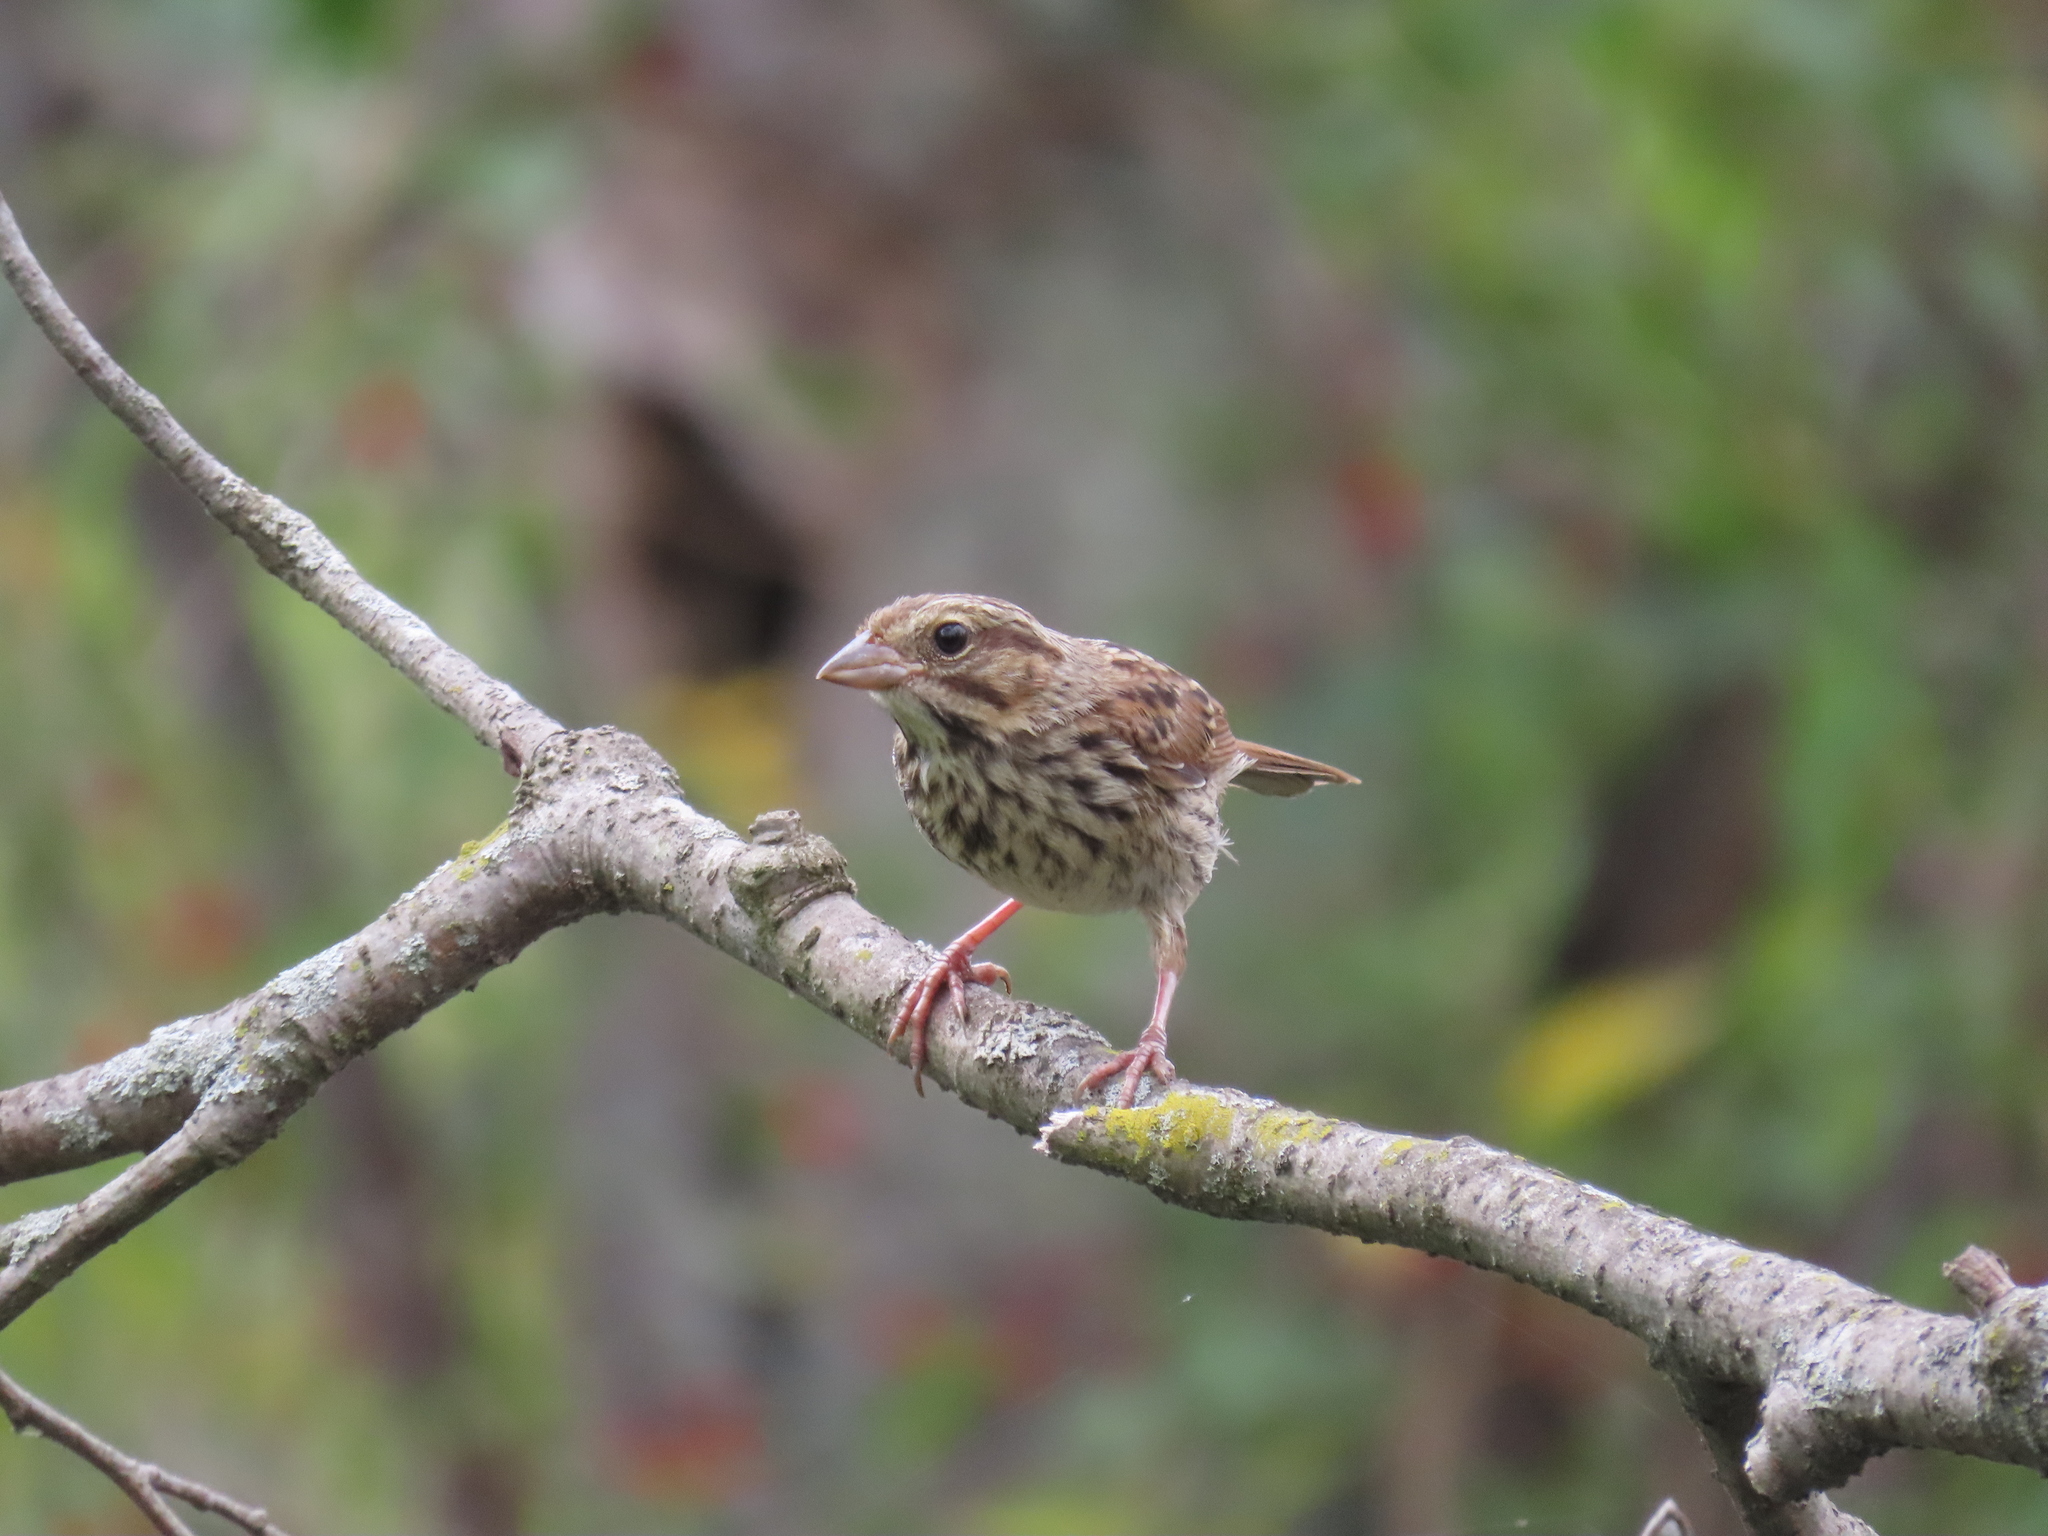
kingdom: Animalia
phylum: Chordata
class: Aves
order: Passeriformes
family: Passerellidae
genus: Melospiza
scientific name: Melospiza melodia
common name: Song sparrow
